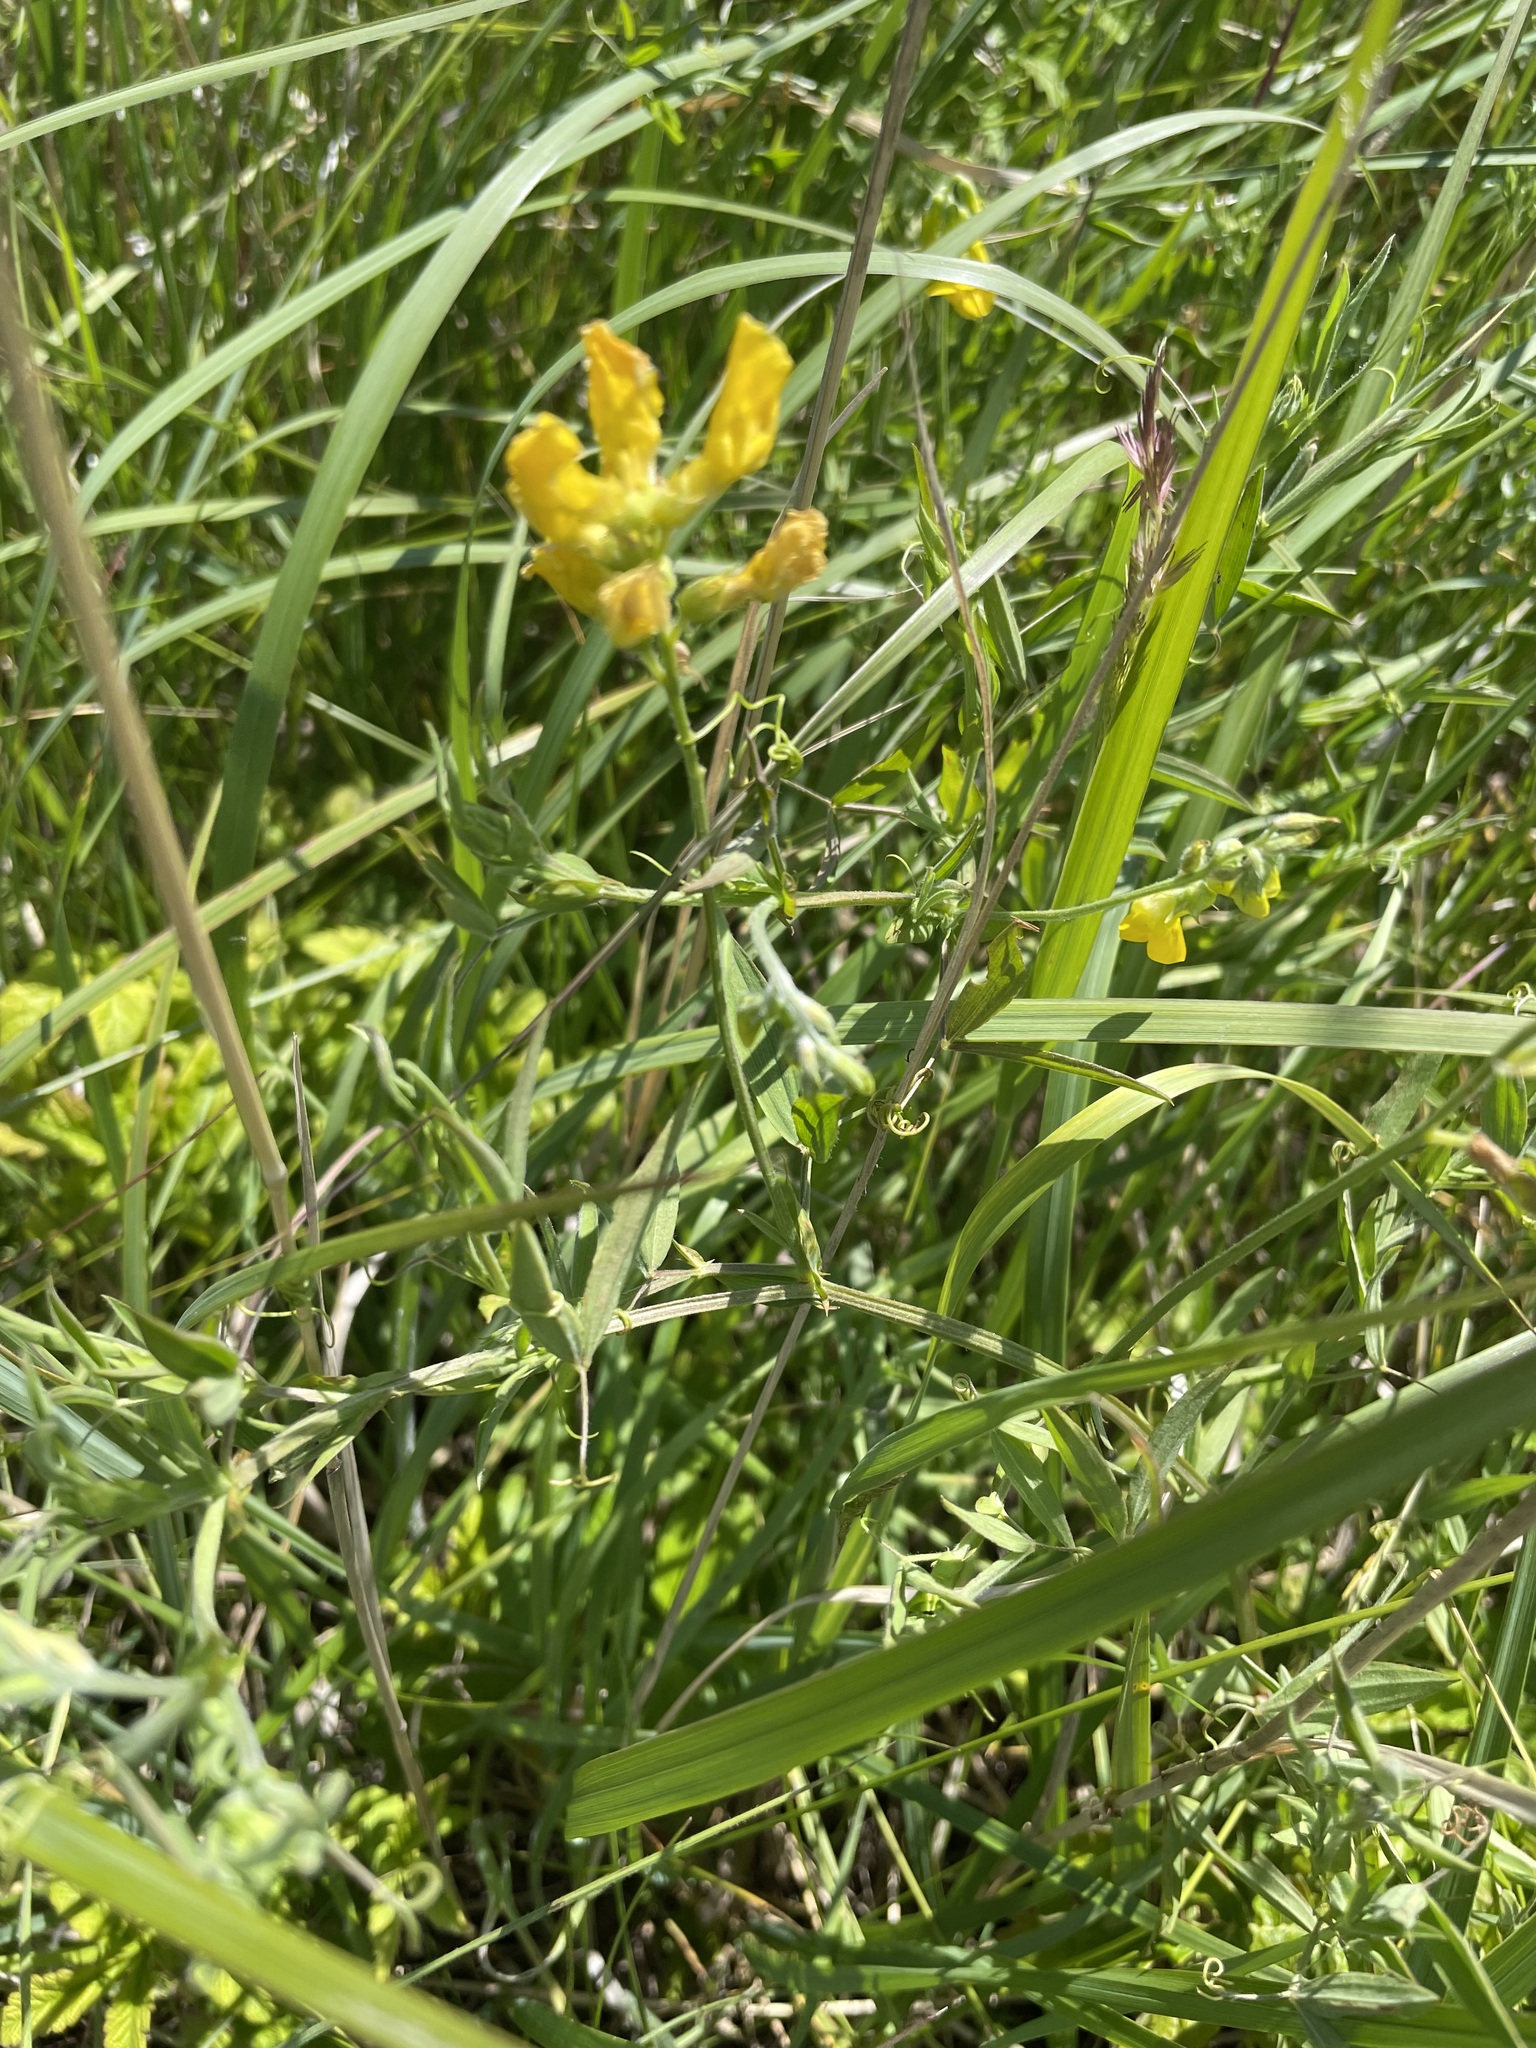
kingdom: Plantae
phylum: Tracheophyta
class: Magnoliopsida
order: Fabales
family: Fabaceae
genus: Lathyrus
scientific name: Lathyrus pratensis
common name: Meadow vetchling
